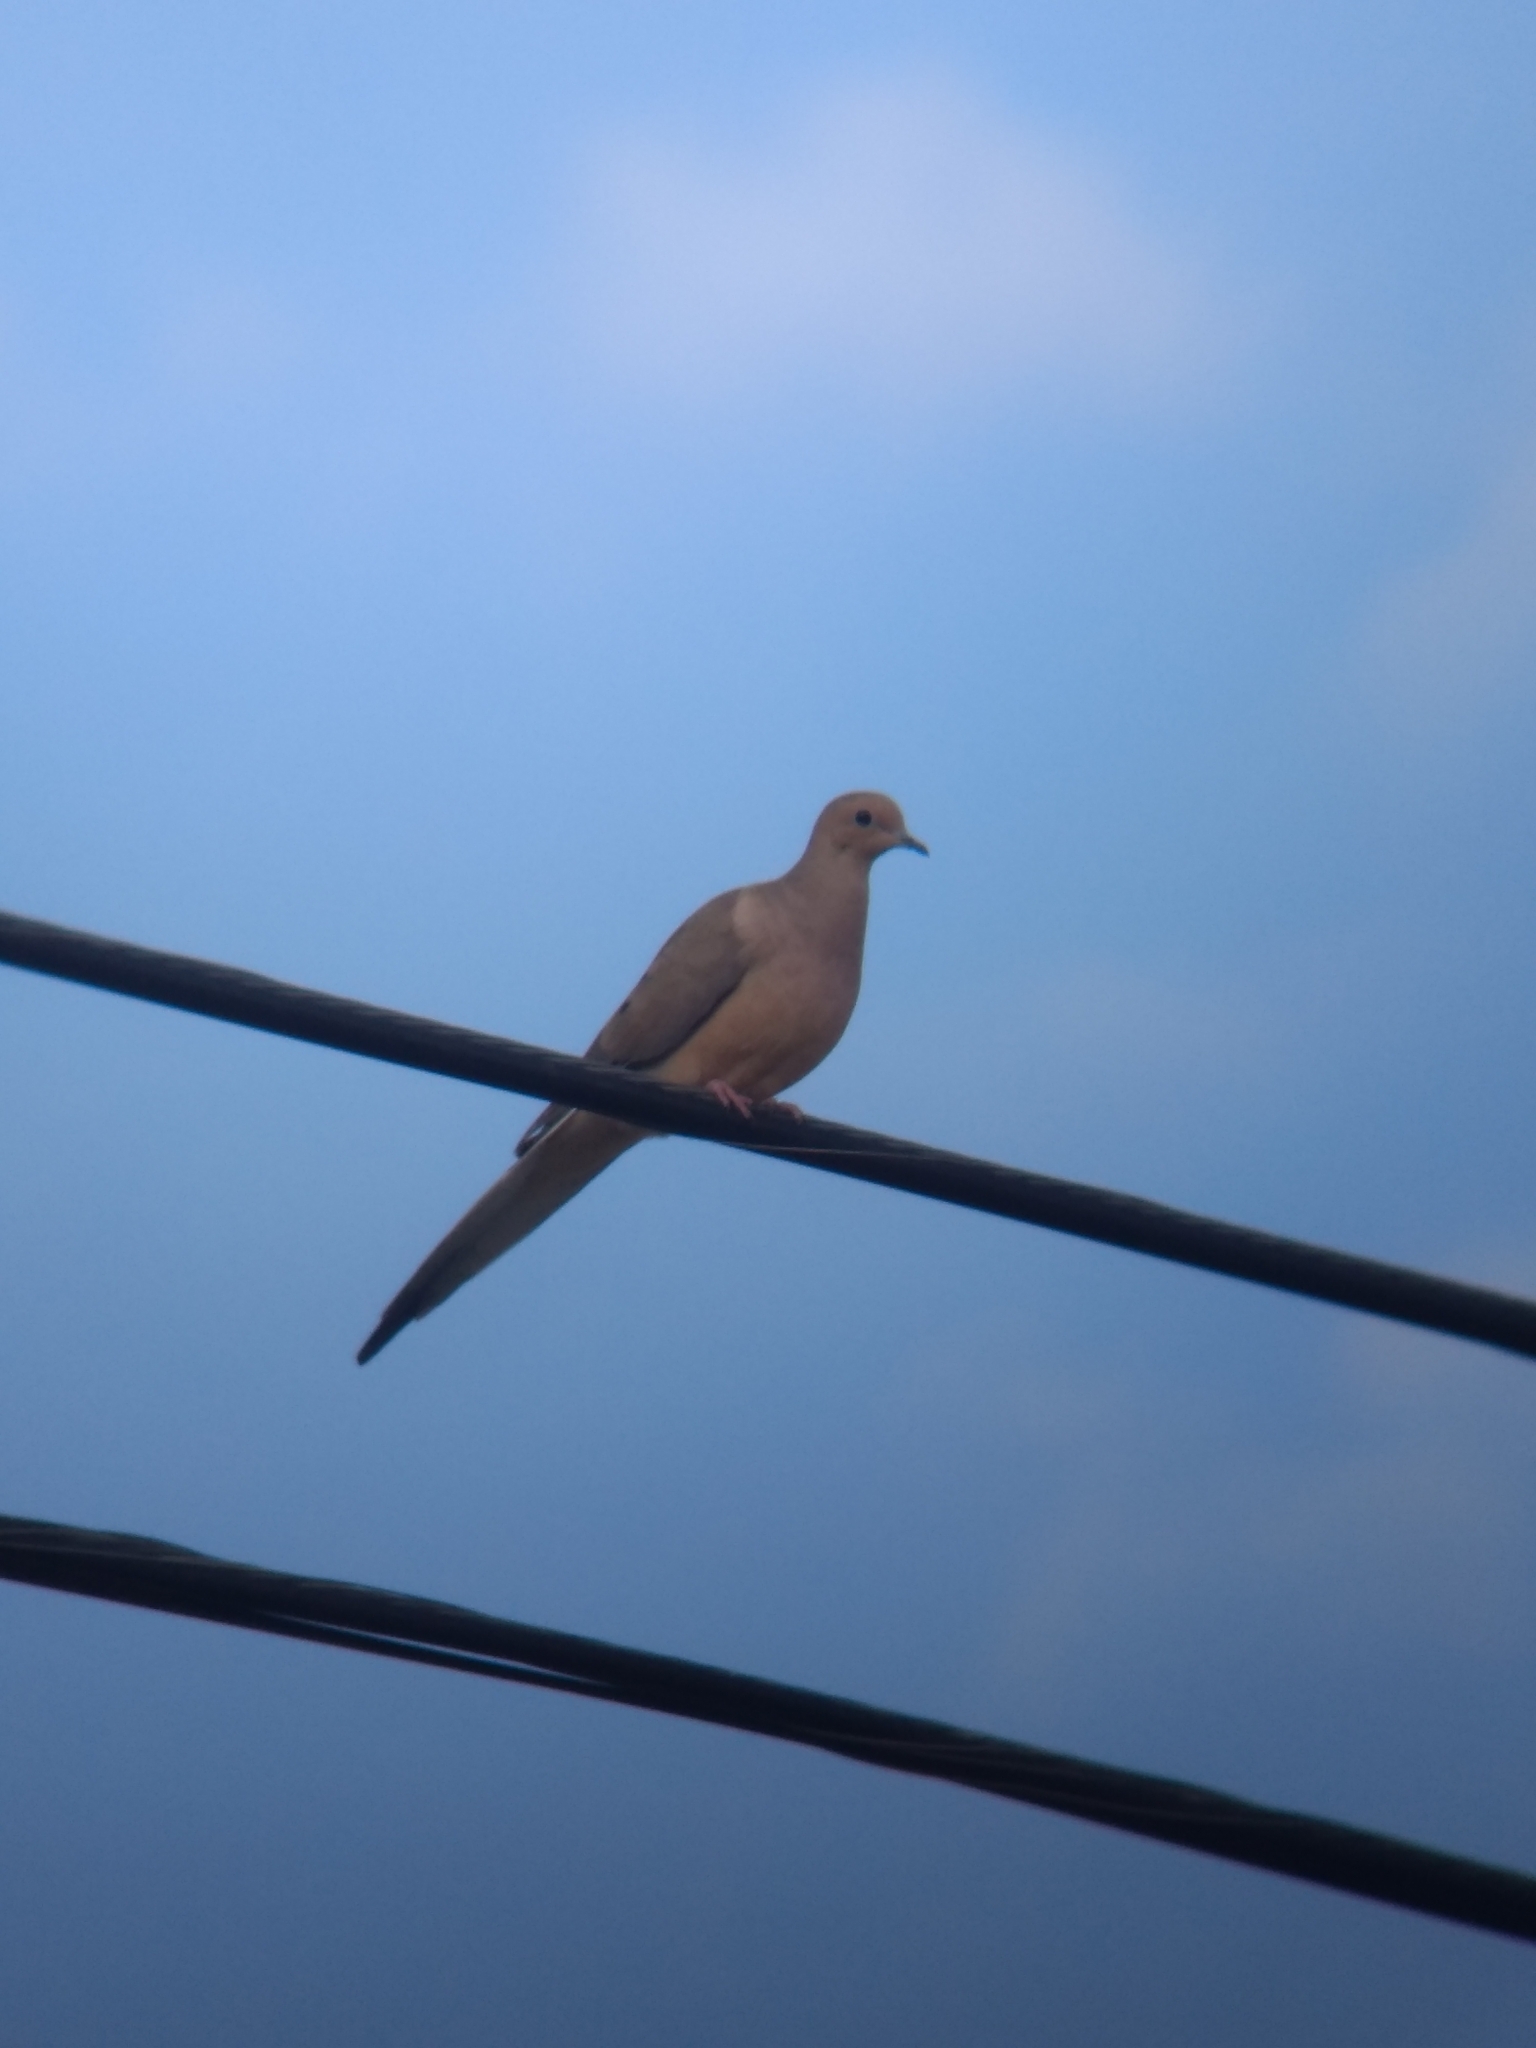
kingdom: Animalia
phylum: Chordata
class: Aves
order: Columbiformes
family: Columbidae
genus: Zenaida
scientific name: Zenaida macroura
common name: Mourning dove
